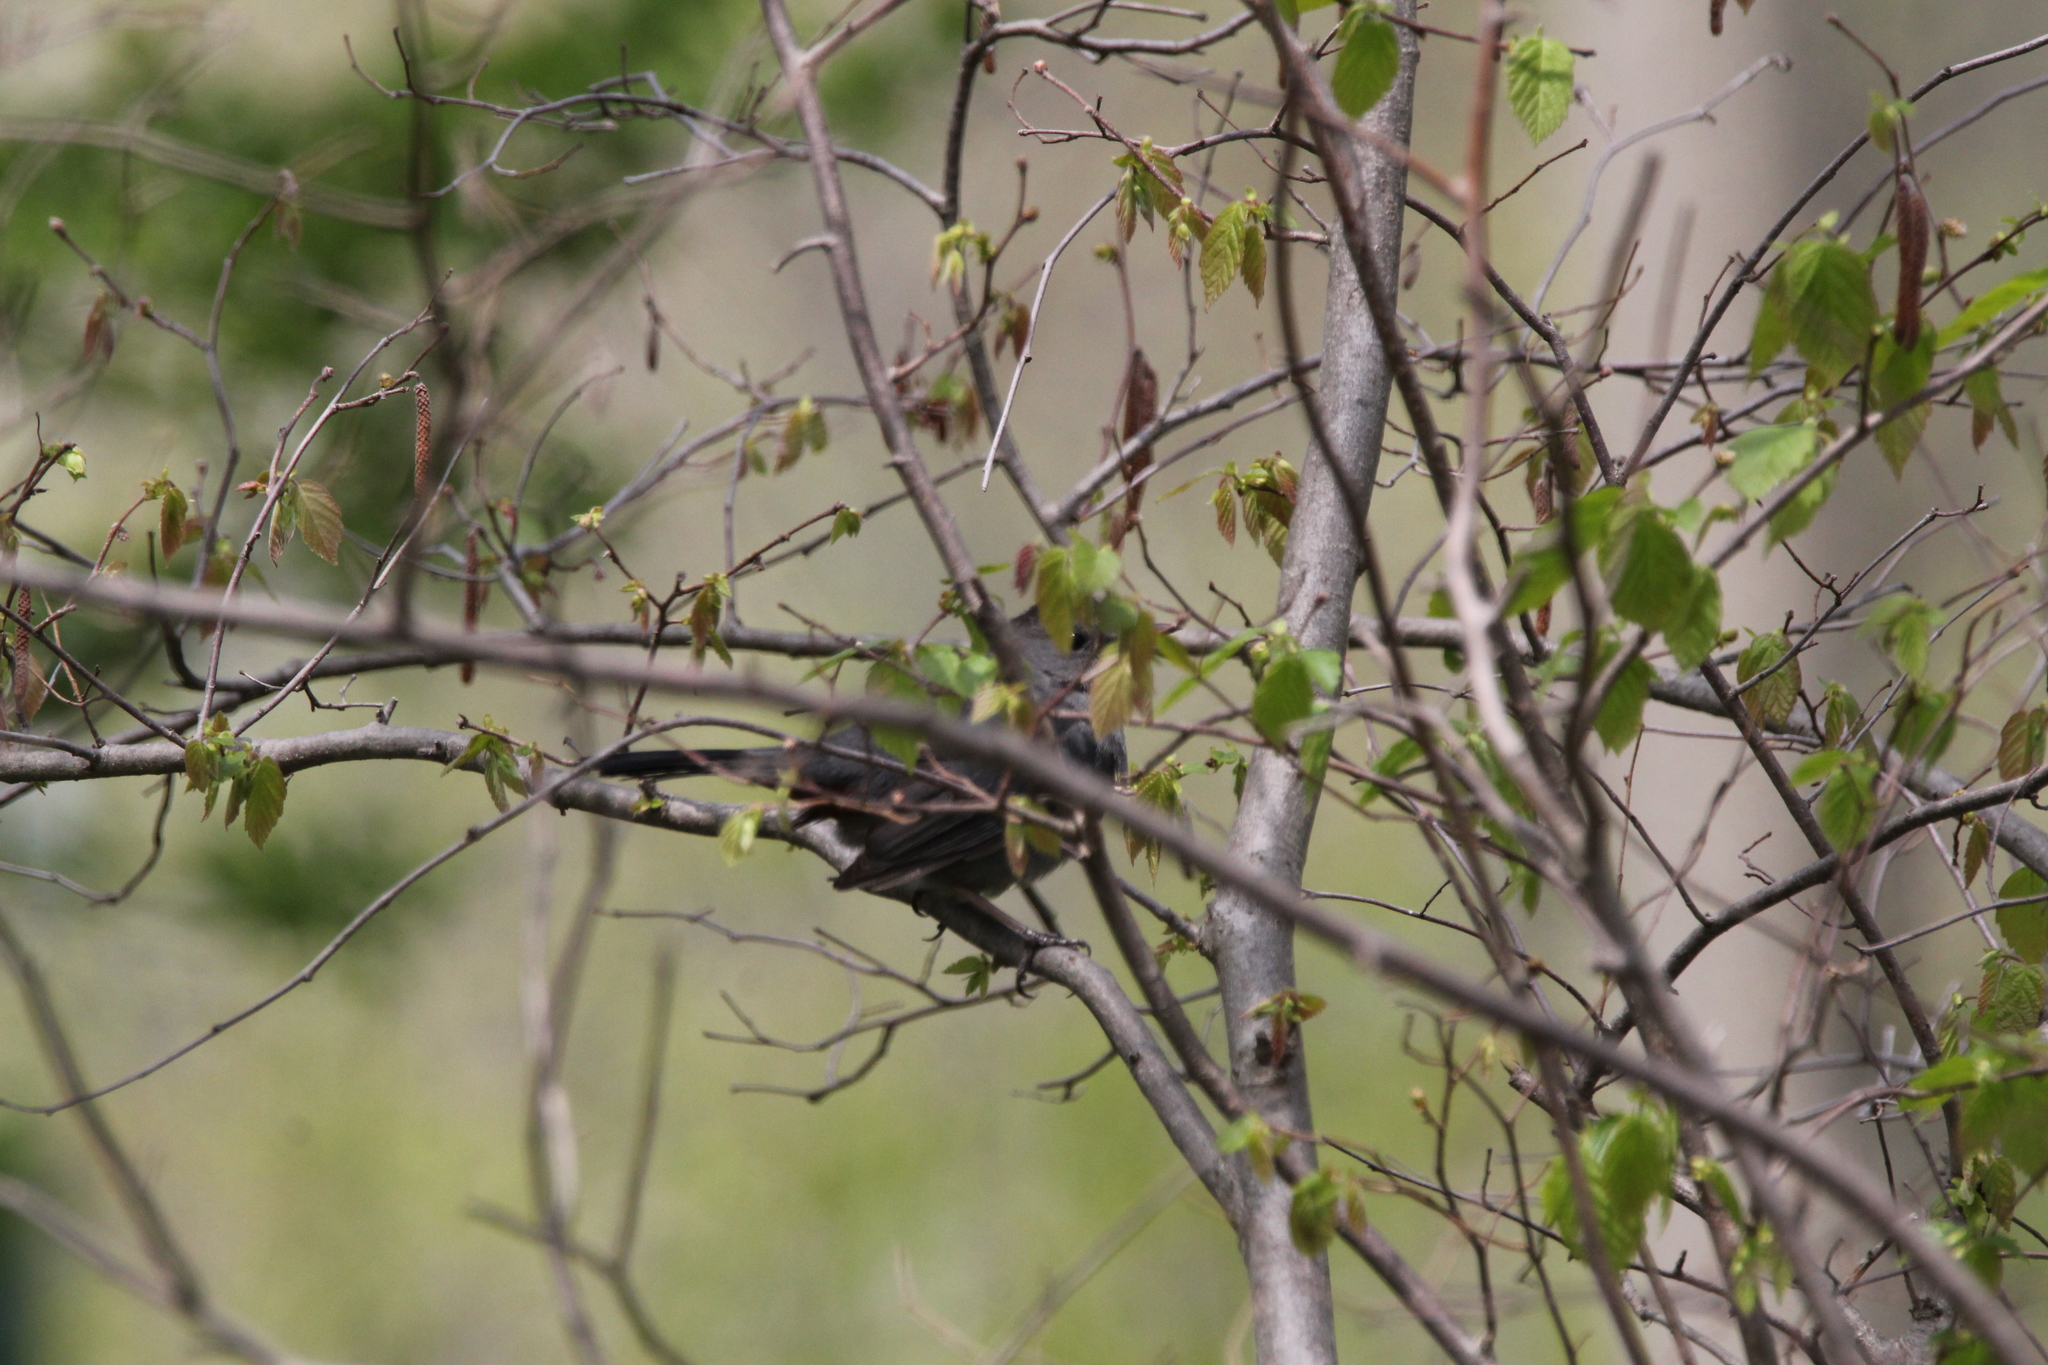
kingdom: Animalia
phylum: Chordata
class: Aves
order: Passeriformes
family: Mimidae
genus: Dumetella
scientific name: Dumetella carolinensis
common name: Gray catbird
